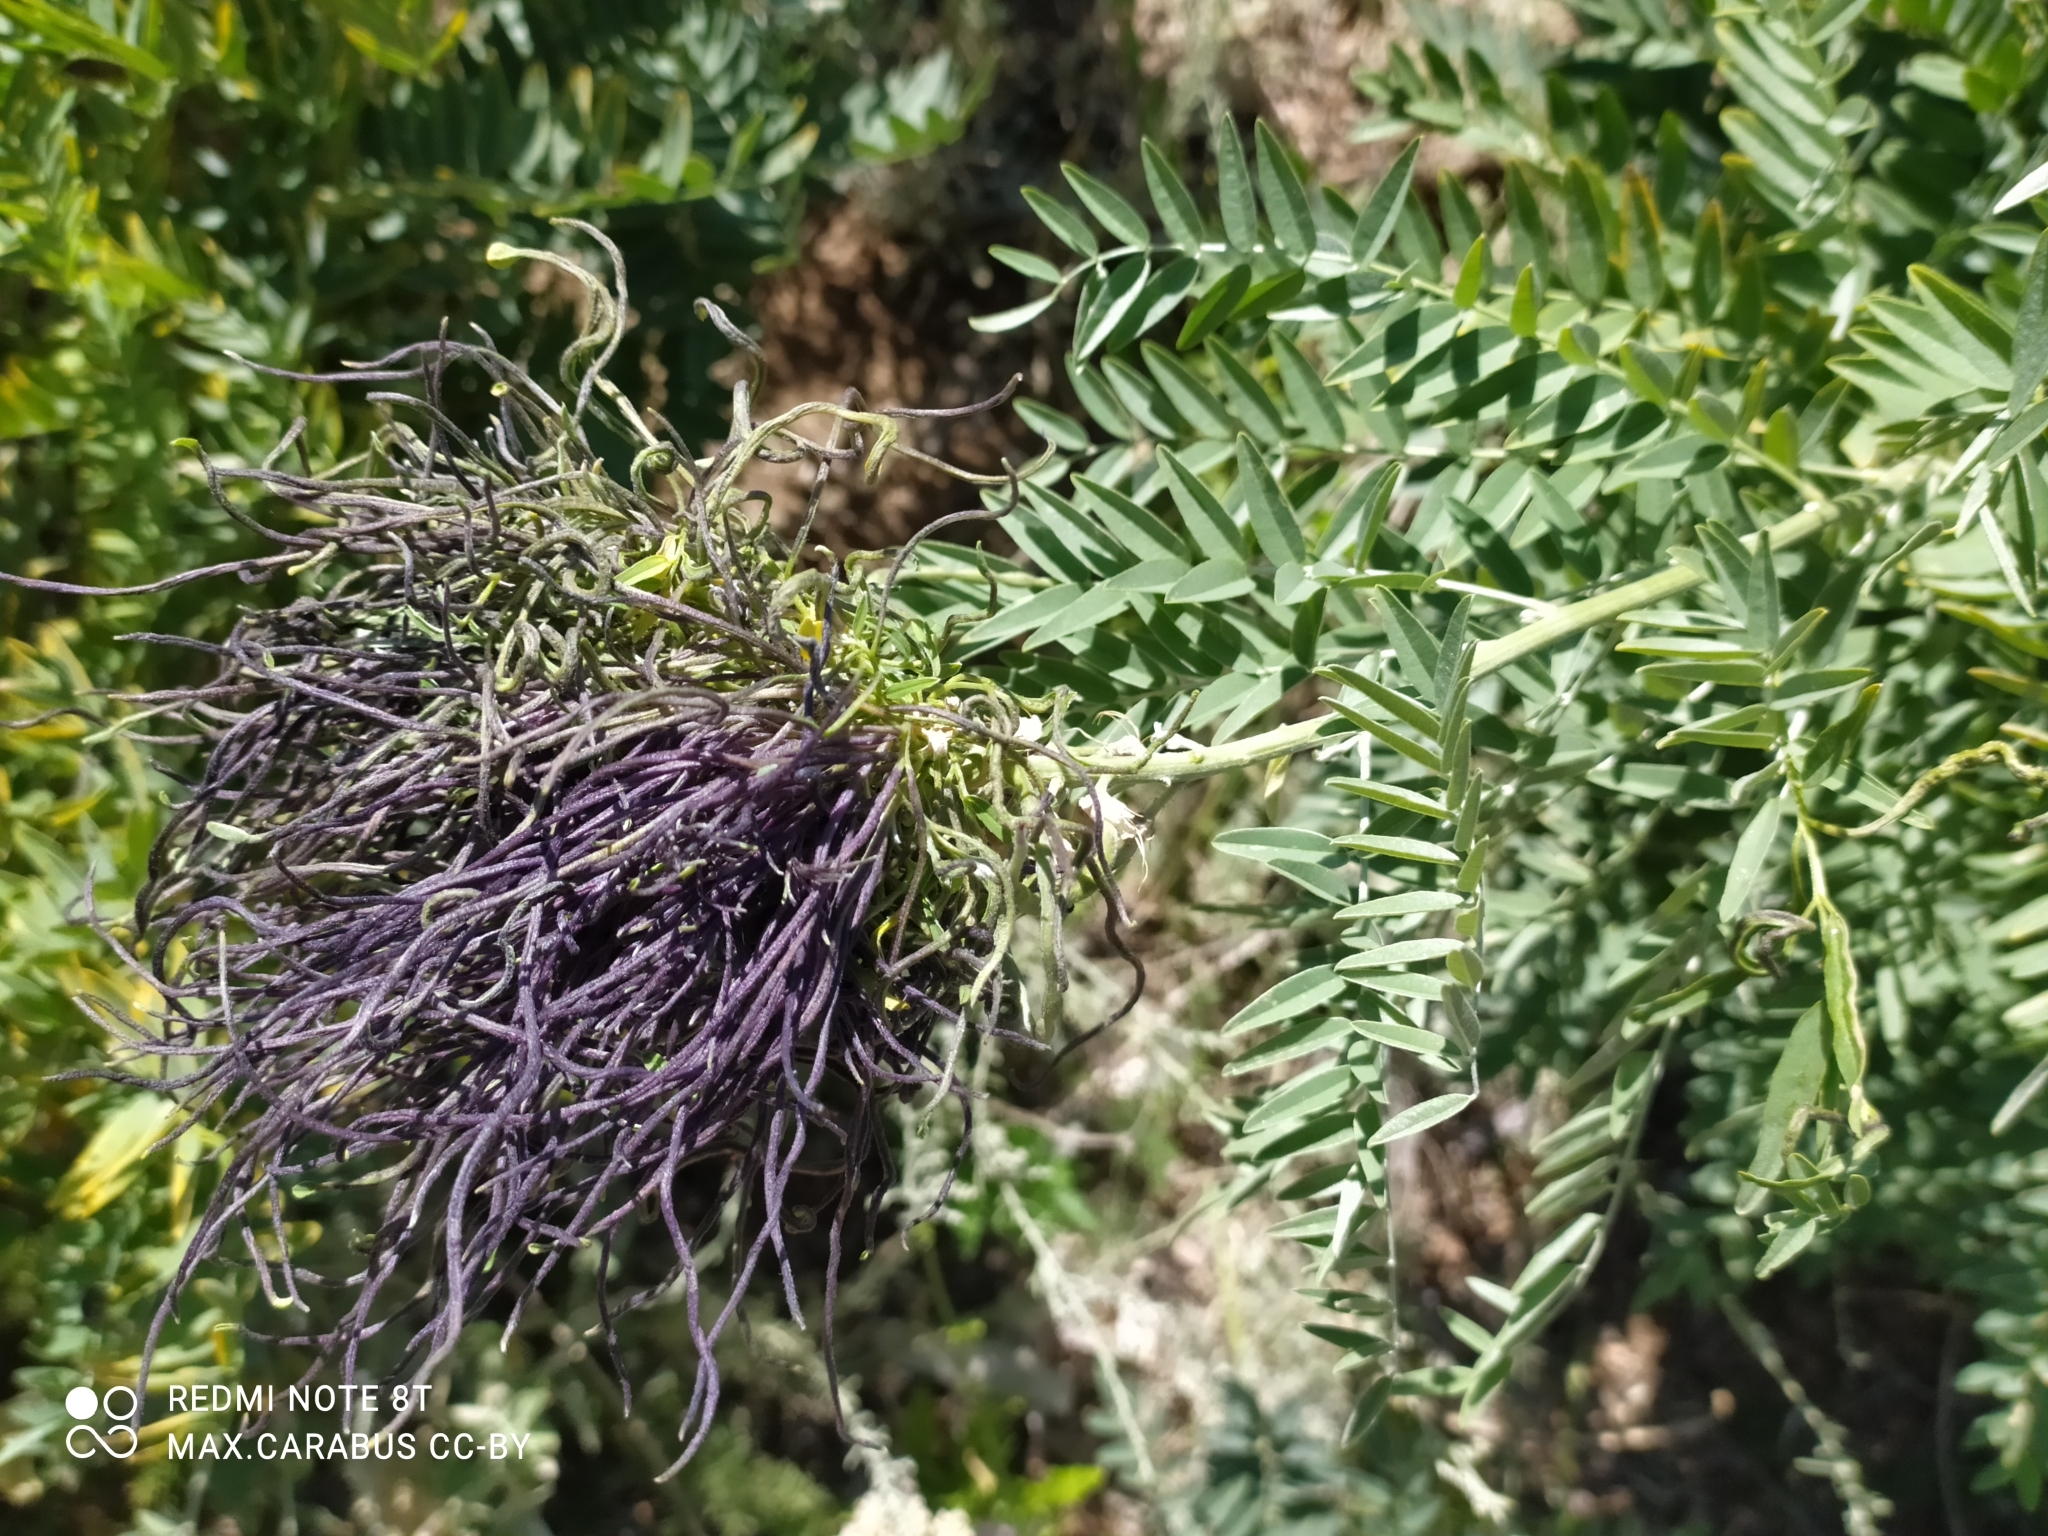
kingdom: Plantae
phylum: Tracheophyta
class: Magnoliopsida
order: Fabales
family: Fabaceae
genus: Sophora
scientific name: Sophora alopecuroides
